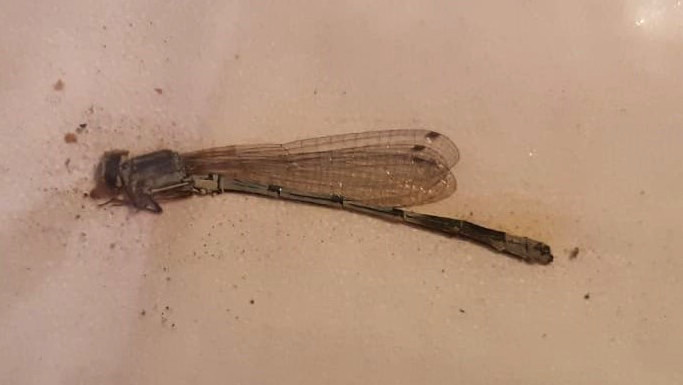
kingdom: Animalia
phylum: Arthropoda
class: Insecta
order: Odonata
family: Coenagrionidae
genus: Coenagrion
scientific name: Coenagrion puella
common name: Azure damselfly
